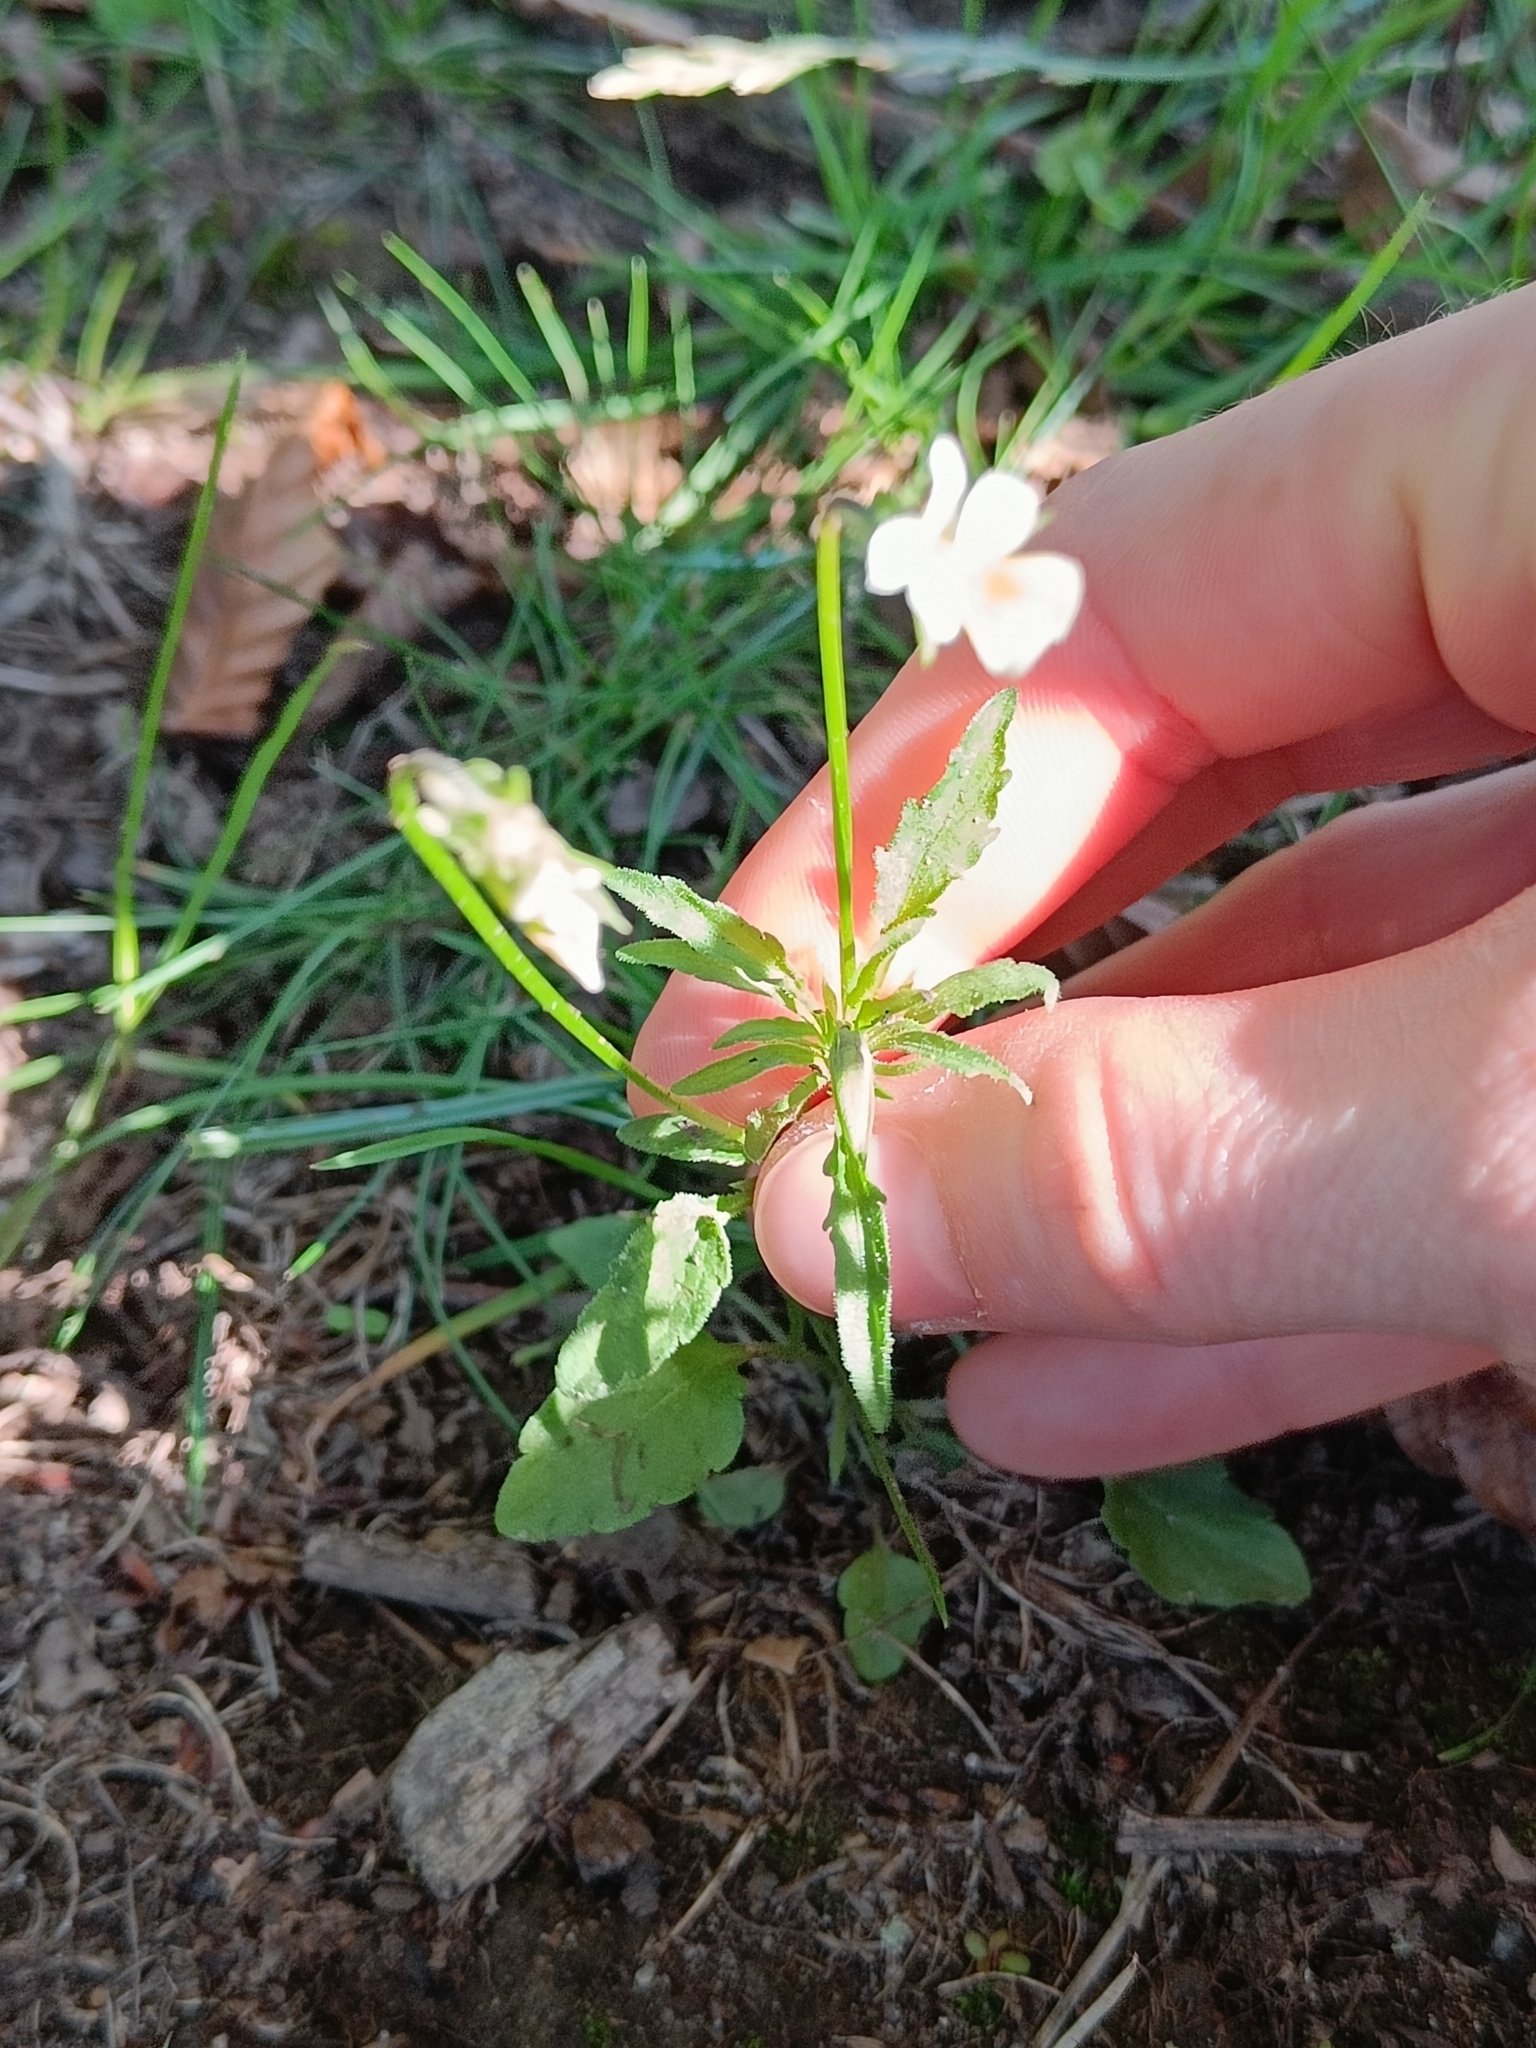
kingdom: Plantae
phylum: Tracheophyta
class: Magnoliopsida
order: Malpighiales
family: Violaceae
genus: Viola
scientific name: Viola arvensis
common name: Field pansy
